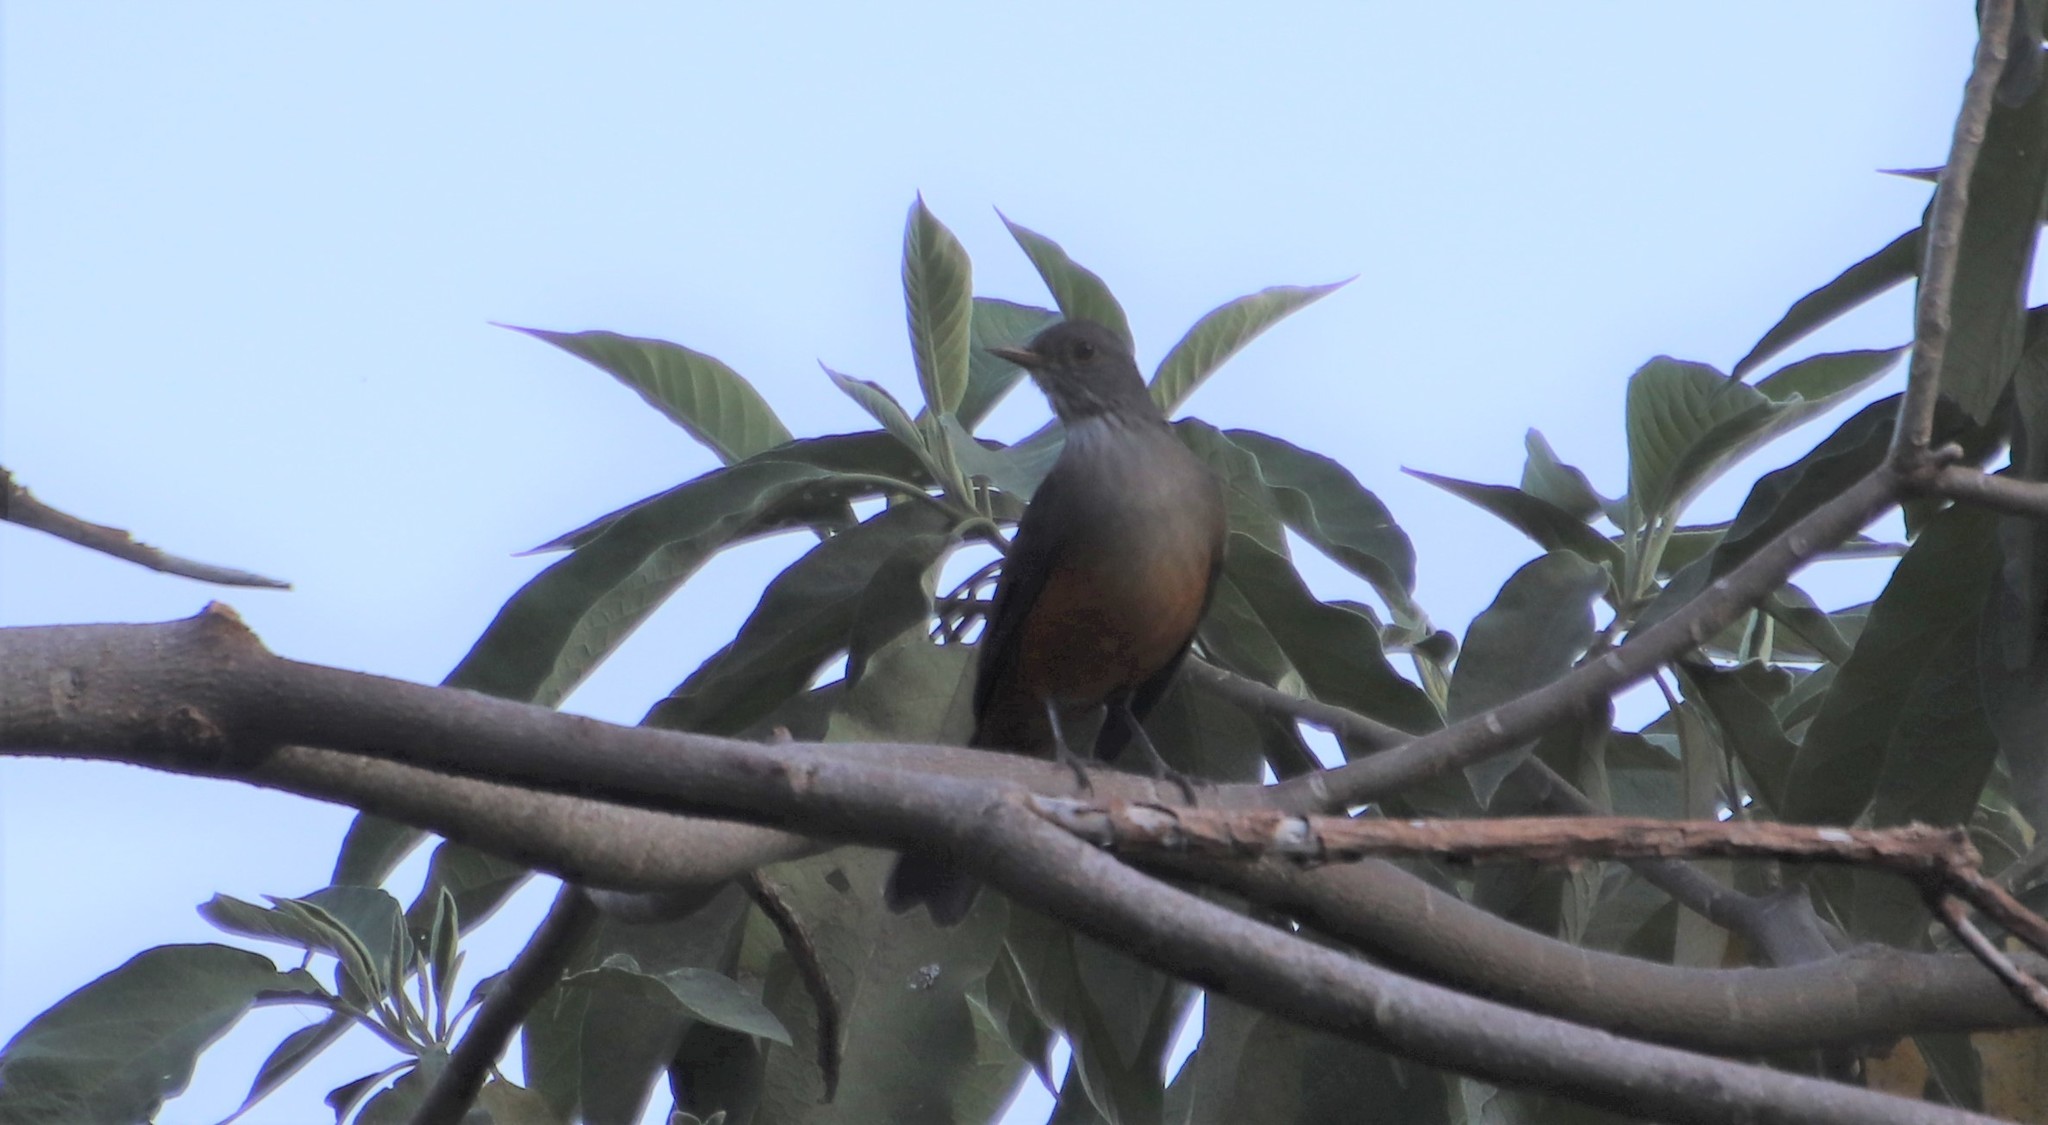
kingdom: Animalia
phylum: Chordata
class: Aves
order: Passeriformes
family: Turdidae
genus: Turdus
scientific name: Turdus rufiventris
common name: Rufous-bellied thrush
